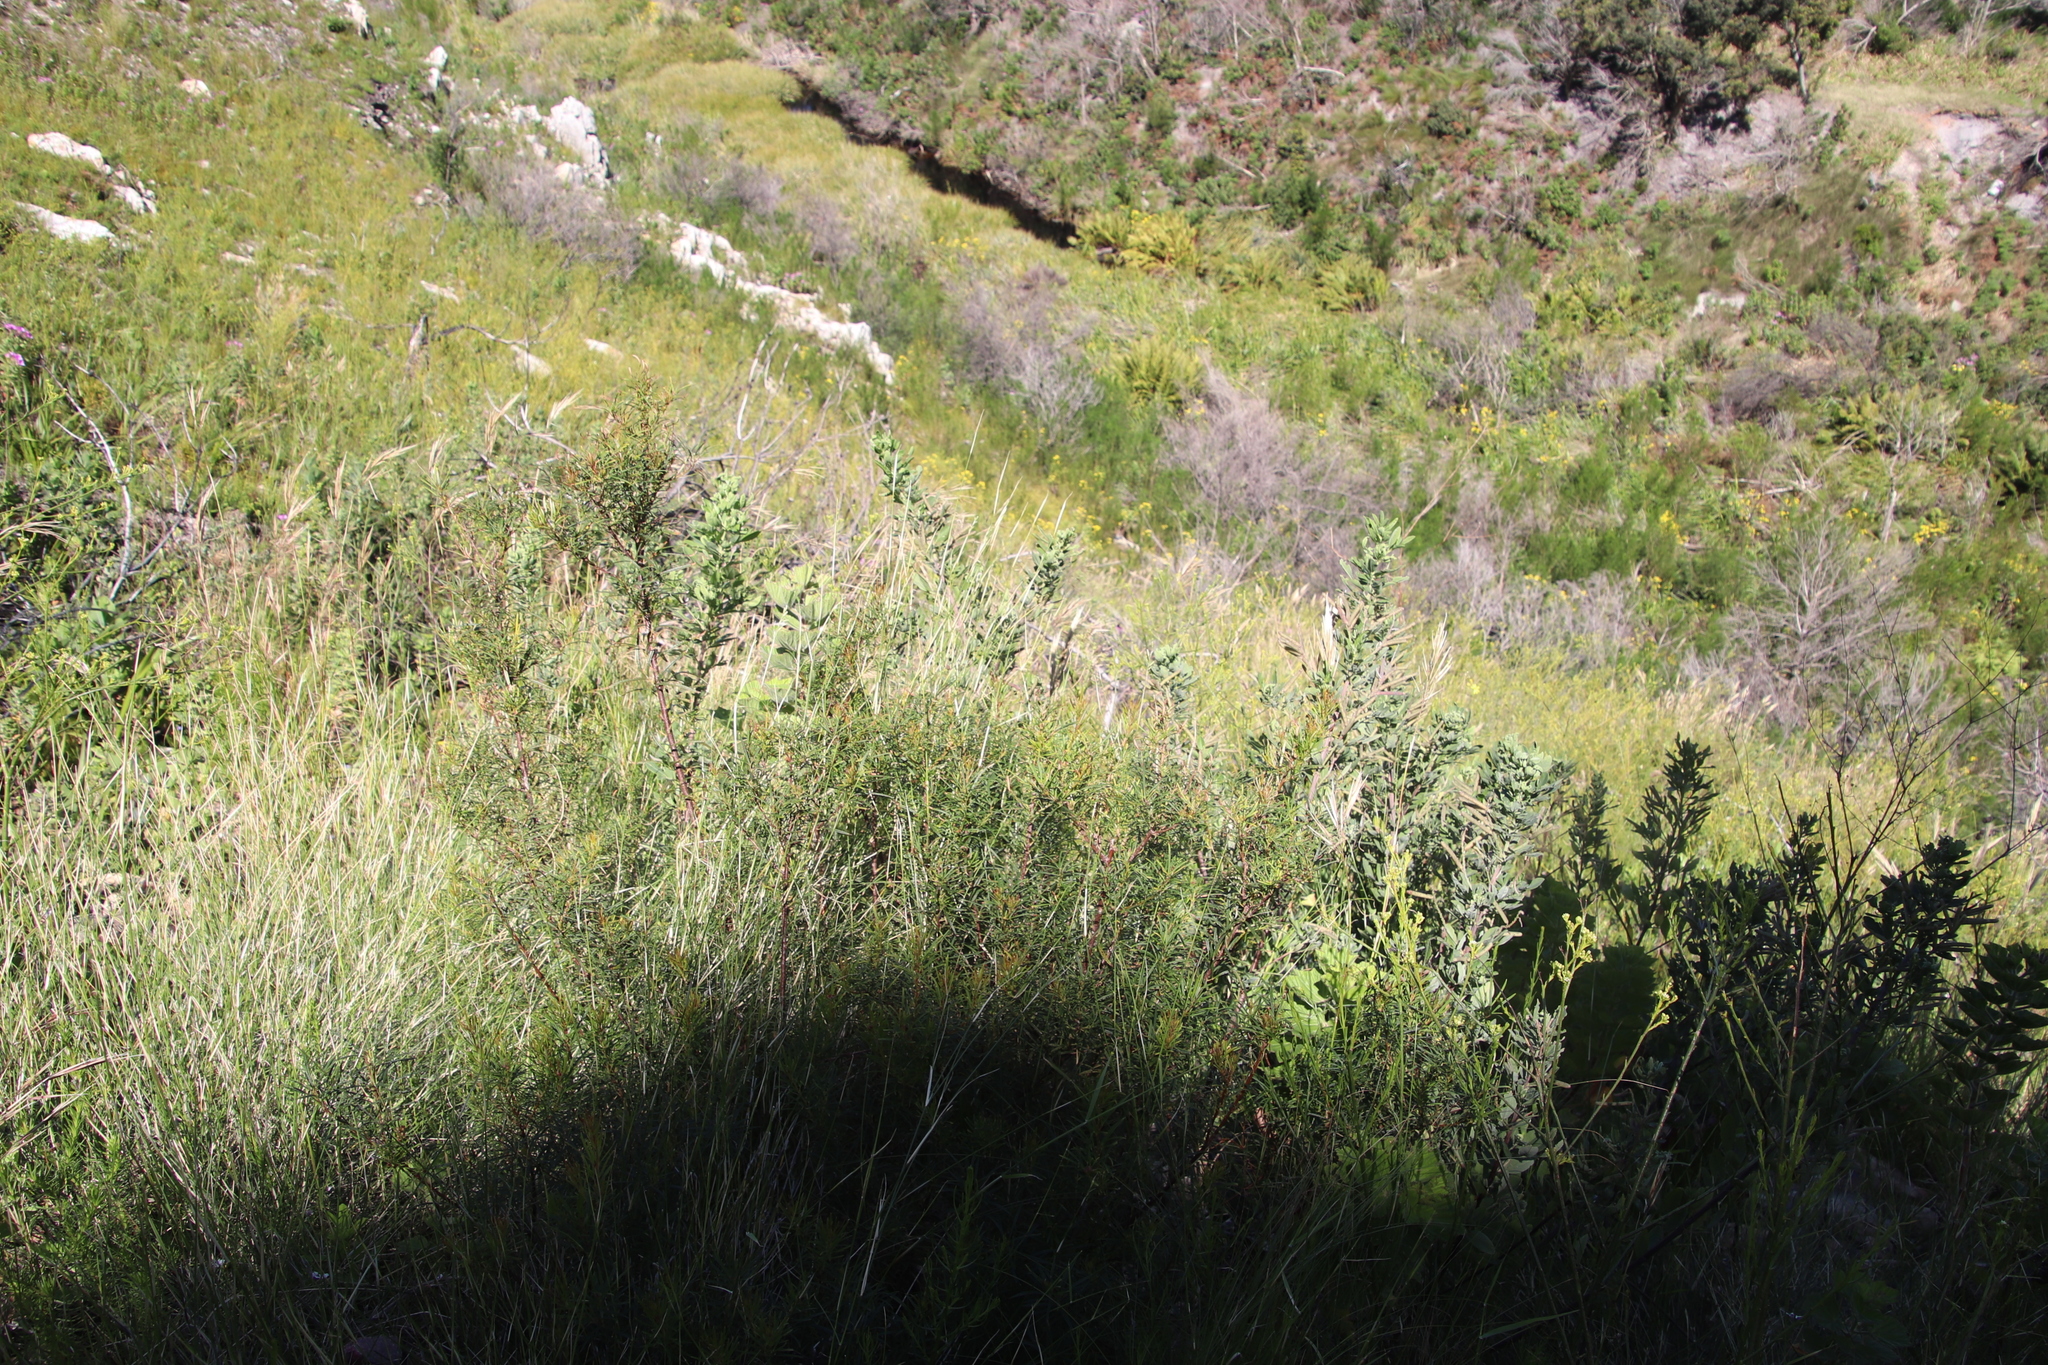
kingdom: Plantae
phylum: Tracheophyta
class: Magnoliopsida
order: Sapindales
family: Anacardiaceae
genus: Searsia
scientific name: Searsia rosmarinifolia
